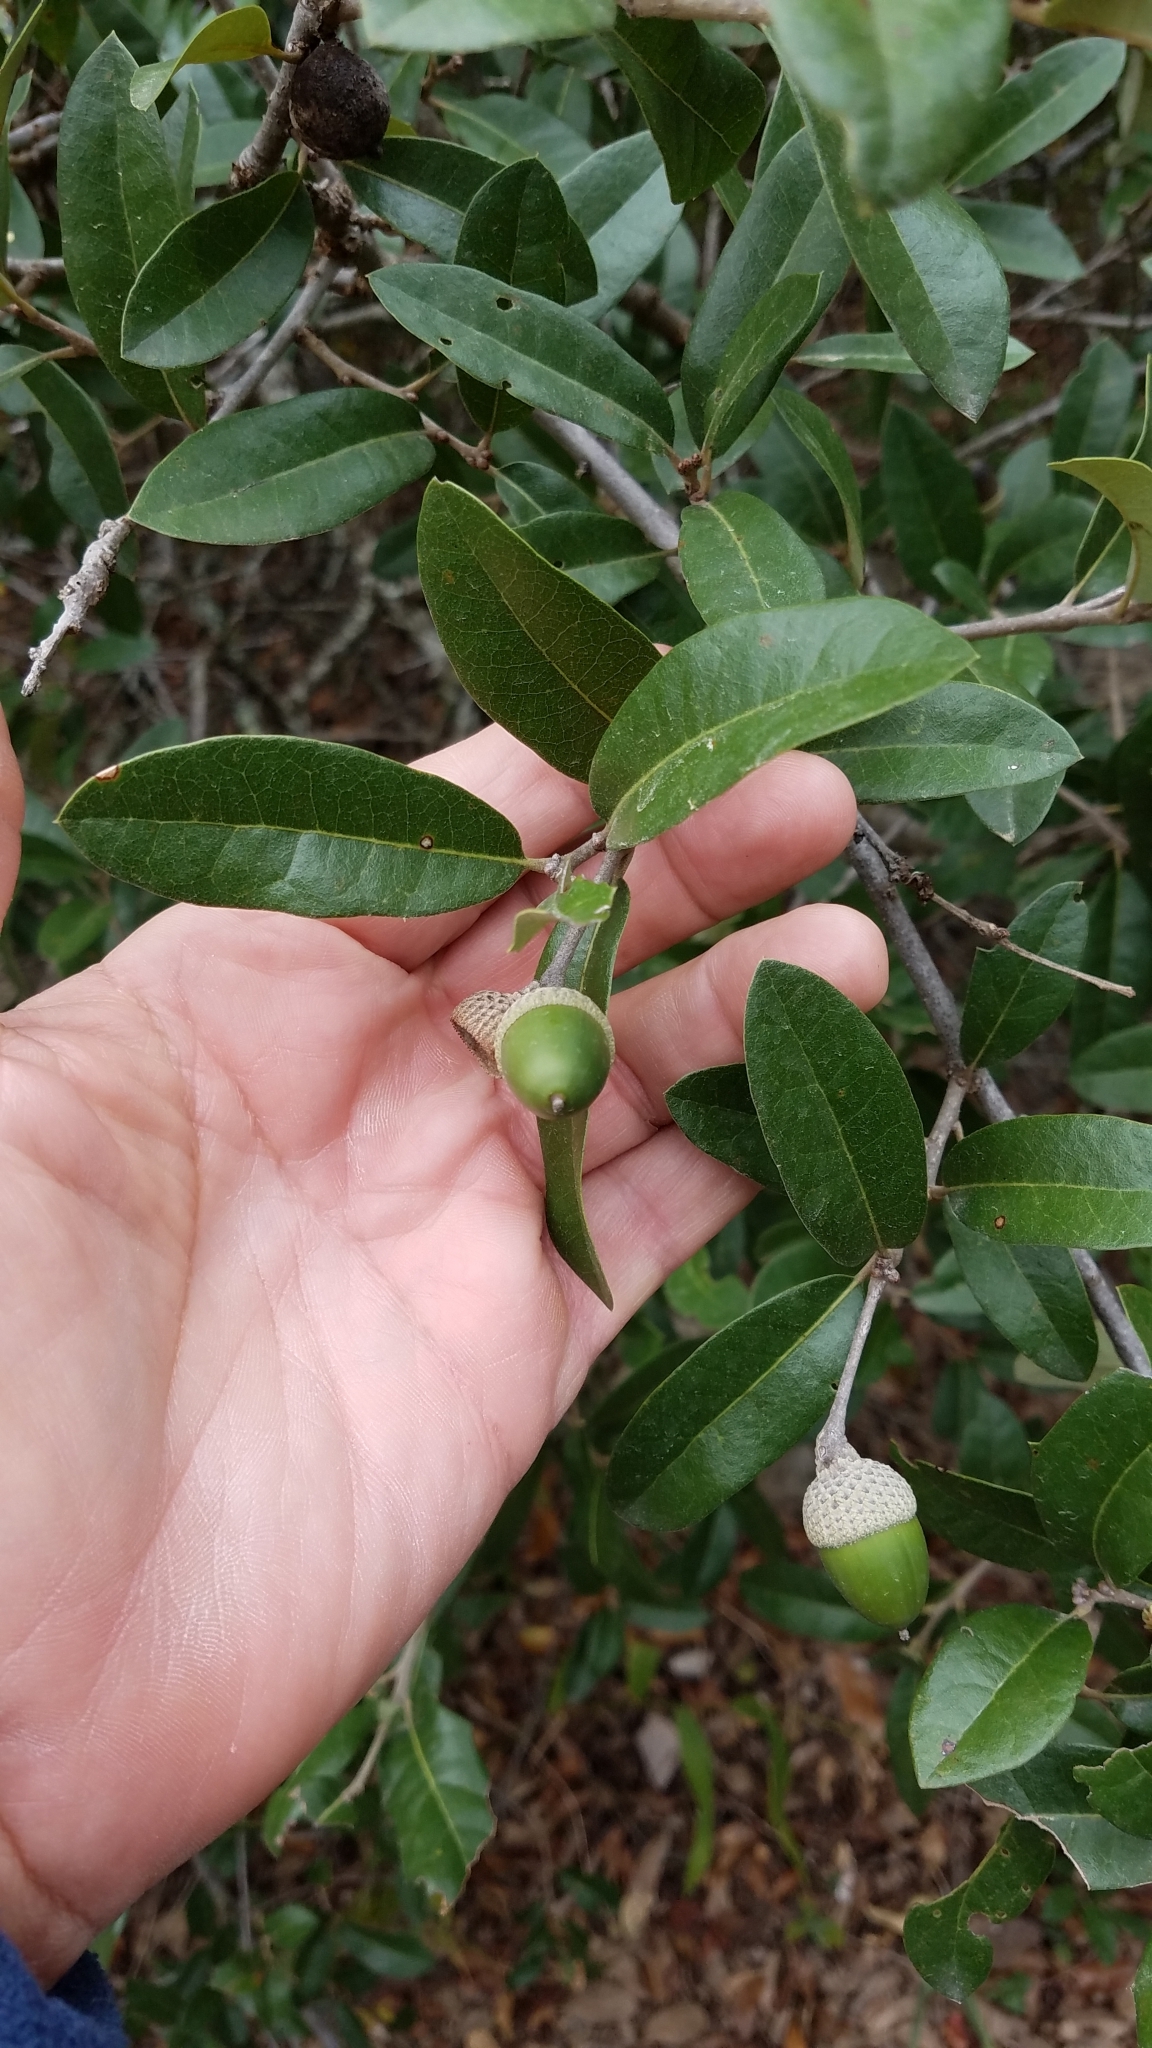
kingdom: Plantae
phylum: Tracheophyta
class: Magnoliopsida
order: Fagales
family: Fagaceae
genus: Quercus
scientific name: Quercus fusiformis
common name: Texas live oak
